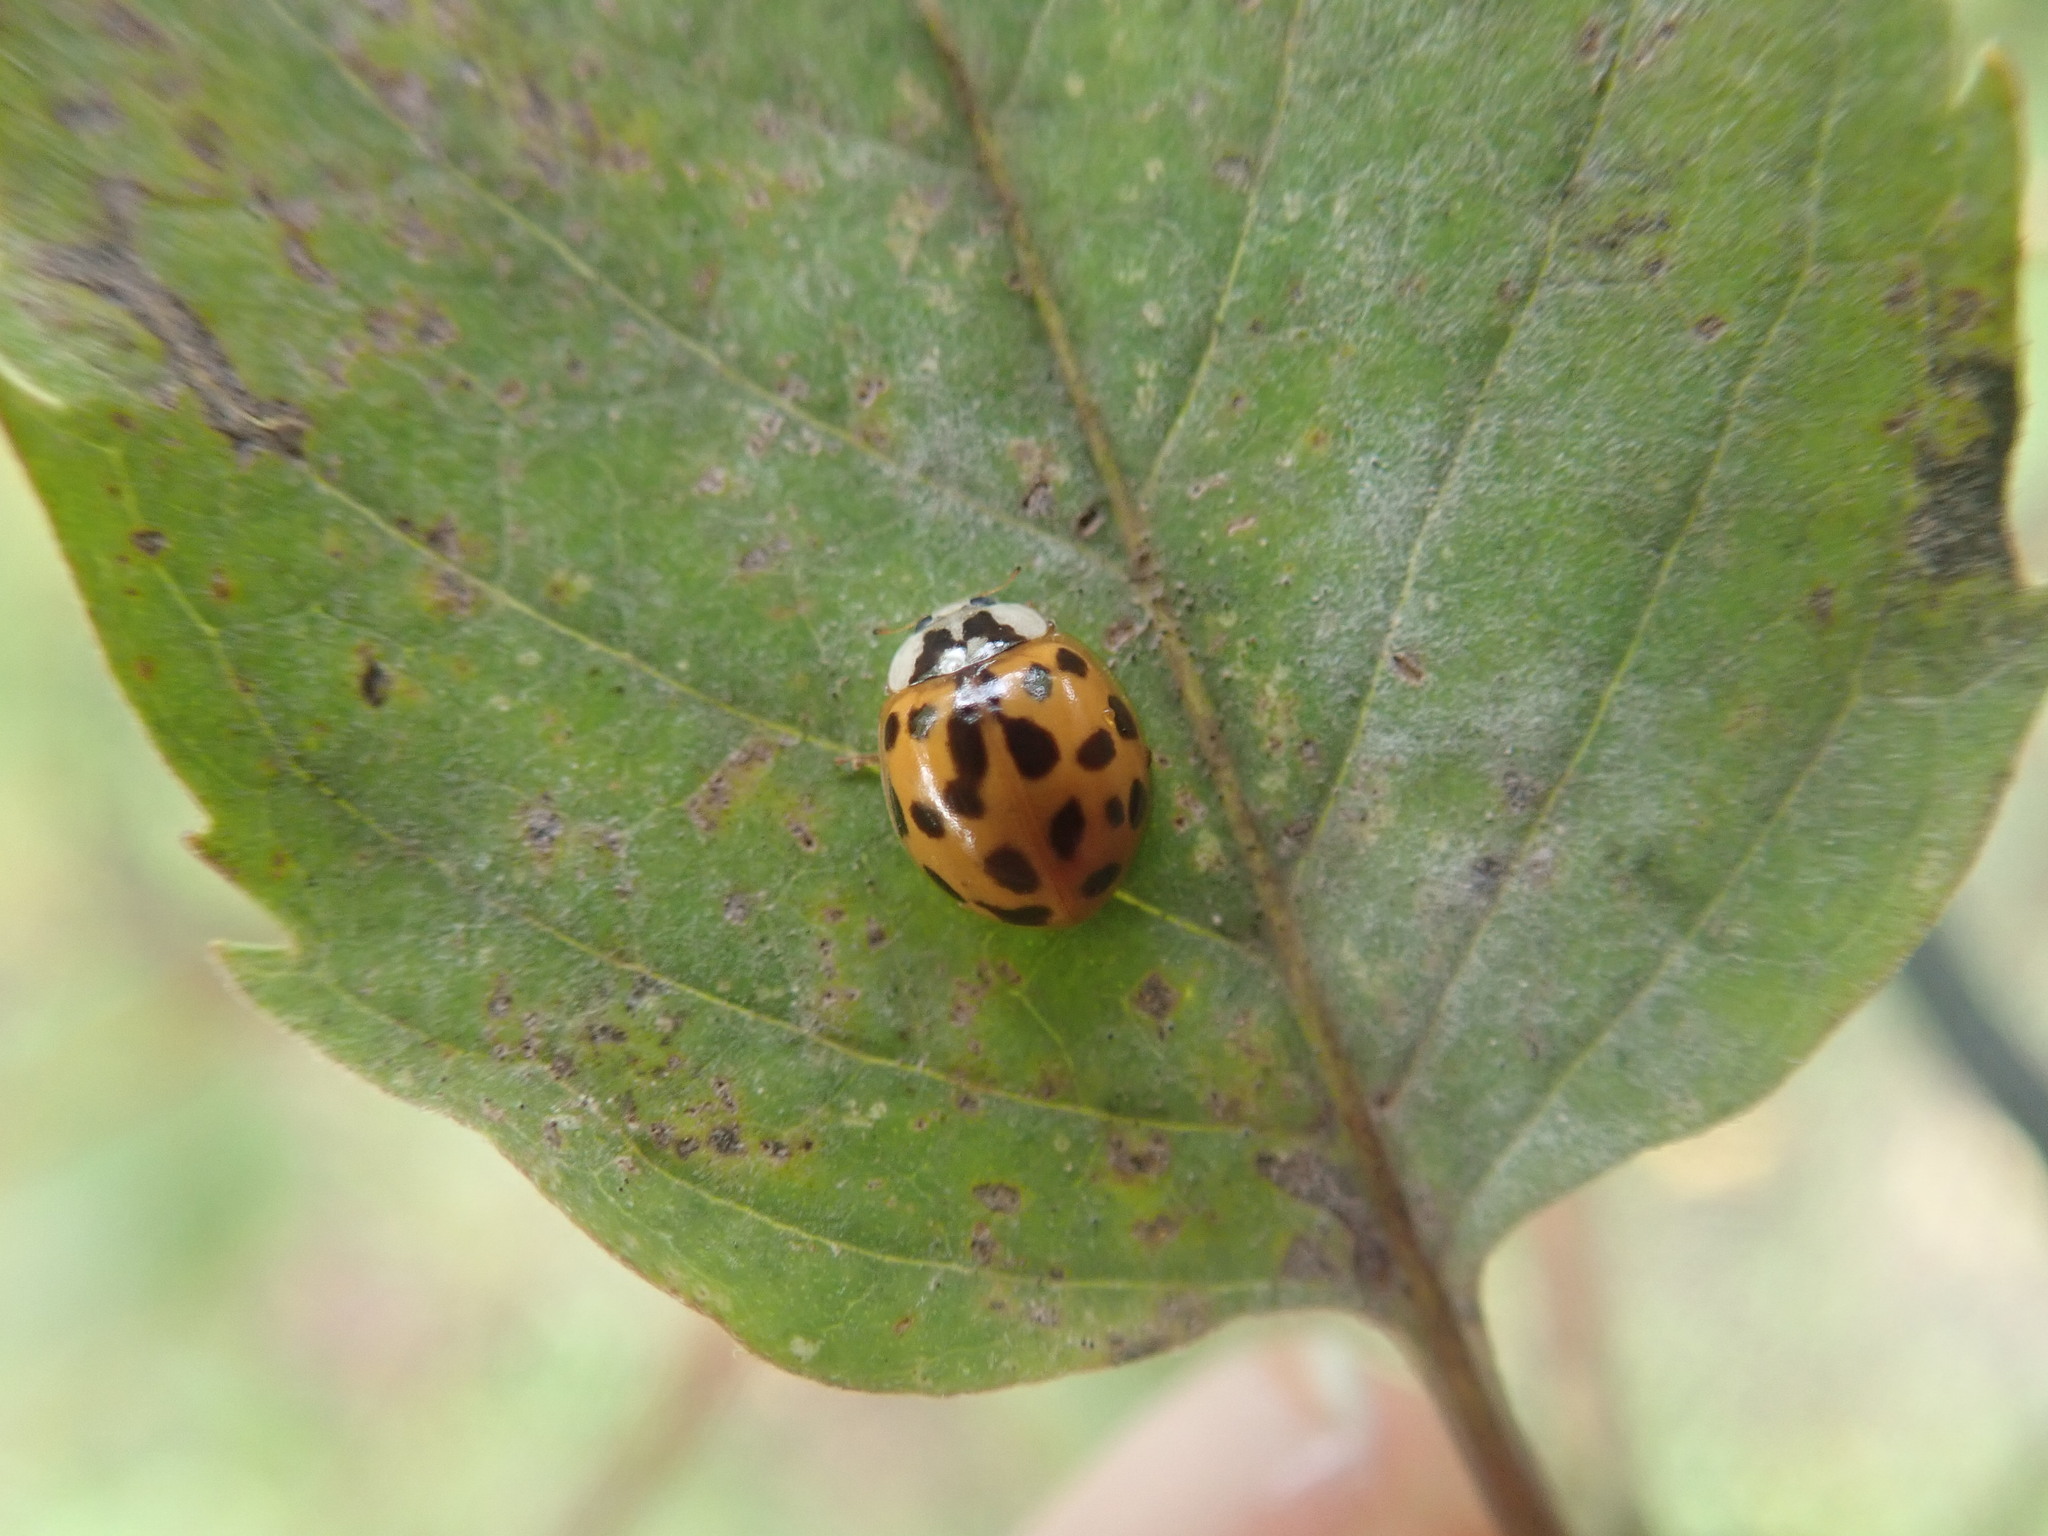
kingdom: Animalia
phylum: Arthropoda
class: Insecta
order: Coleoptera
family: Coccinellidae
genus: Harmonia
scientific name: Harmonia axyridis
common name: Harlequin ladybird
